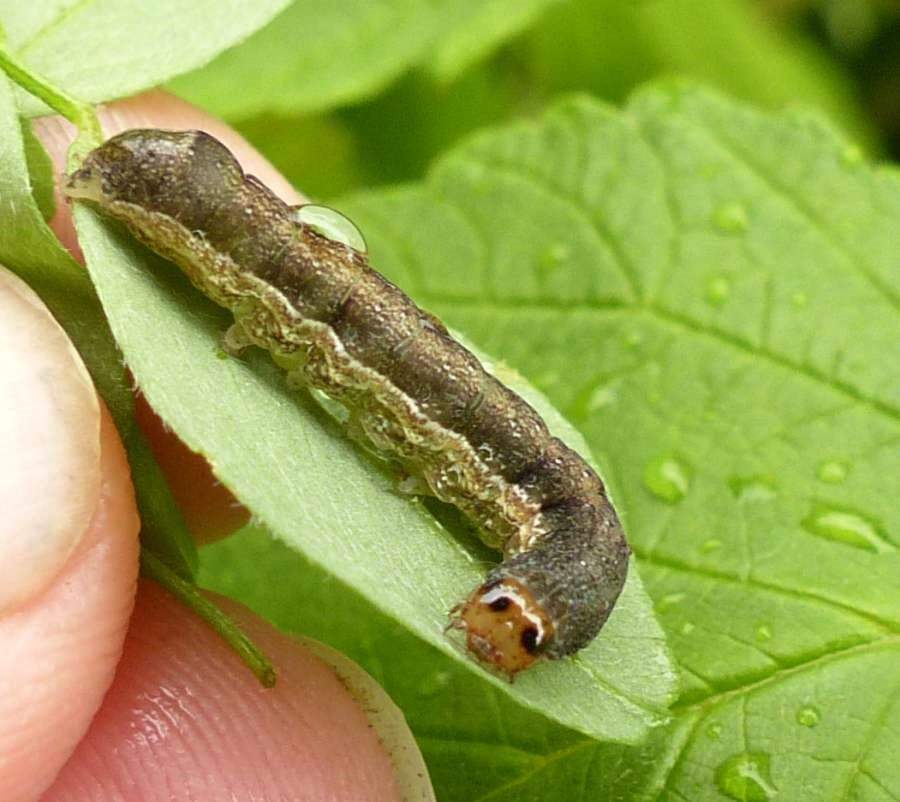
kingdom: Animalia
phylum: Arthropoda
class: Insecta
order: Lepidoptera
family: Noctuidae
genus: Crocigrapha
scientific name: Crocigrapha normani
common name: Norman's quaker
